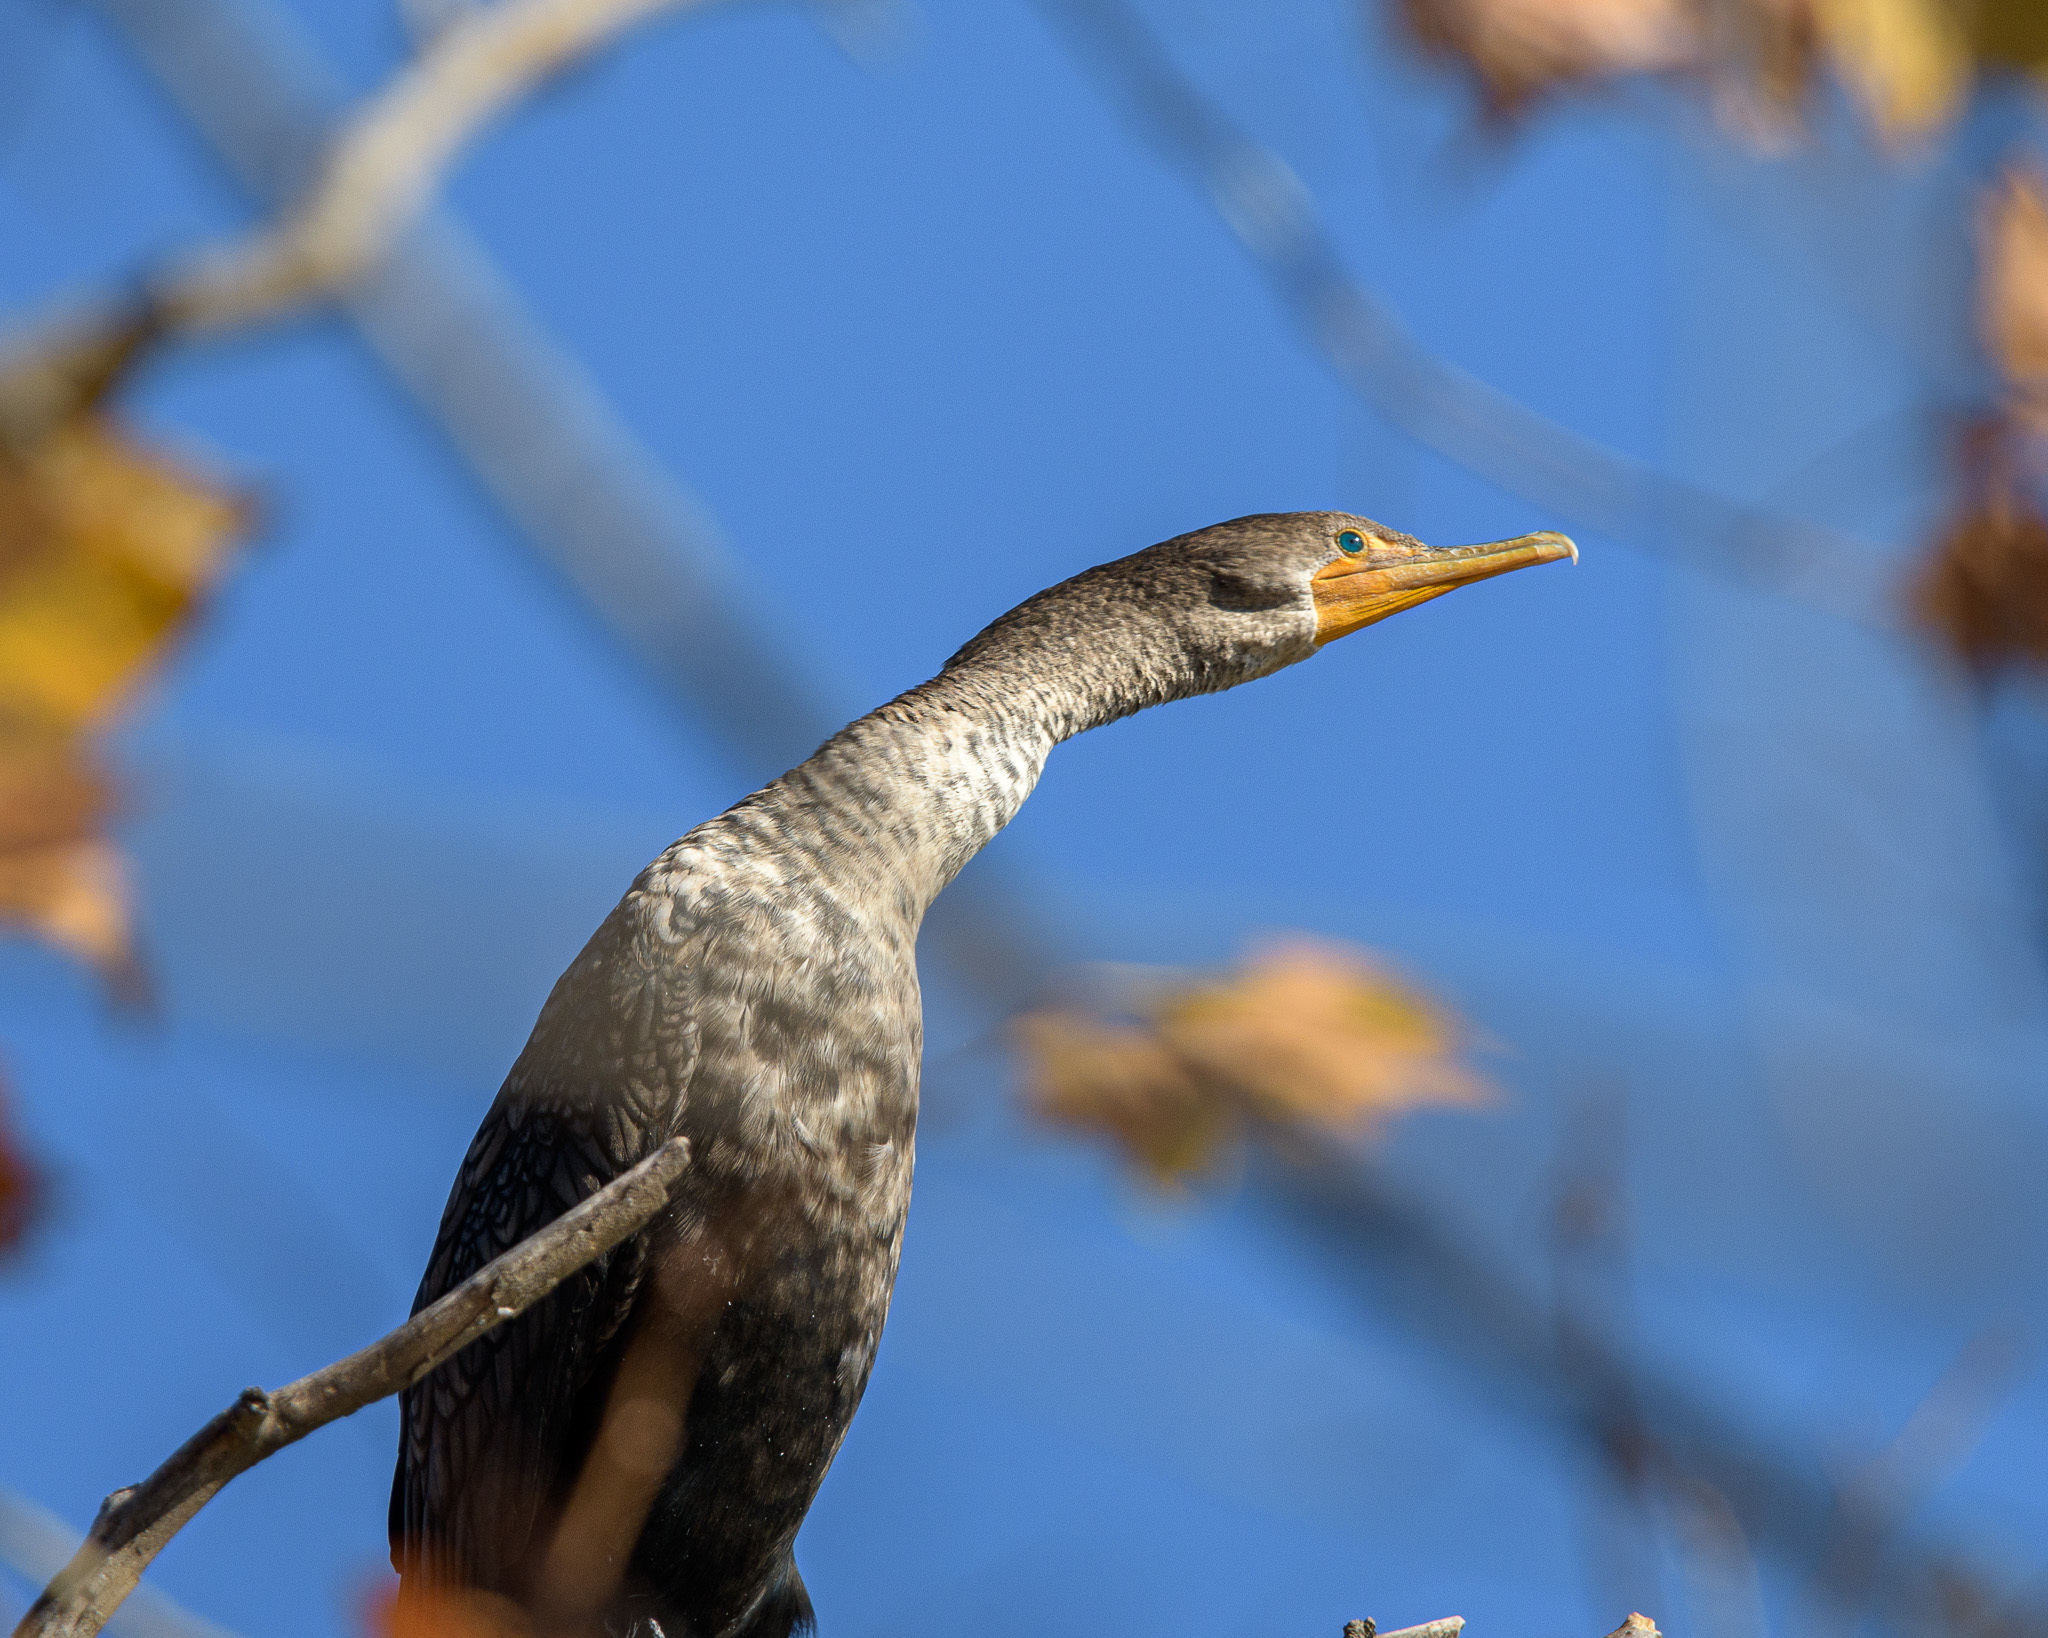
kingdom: Animalia
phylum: Chordata
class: Aves
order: Suliformes
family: Phalacrocoracidae
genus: Phalacrocorax
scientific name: Phalacrocorax auritus
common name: Double-crested cormorant
